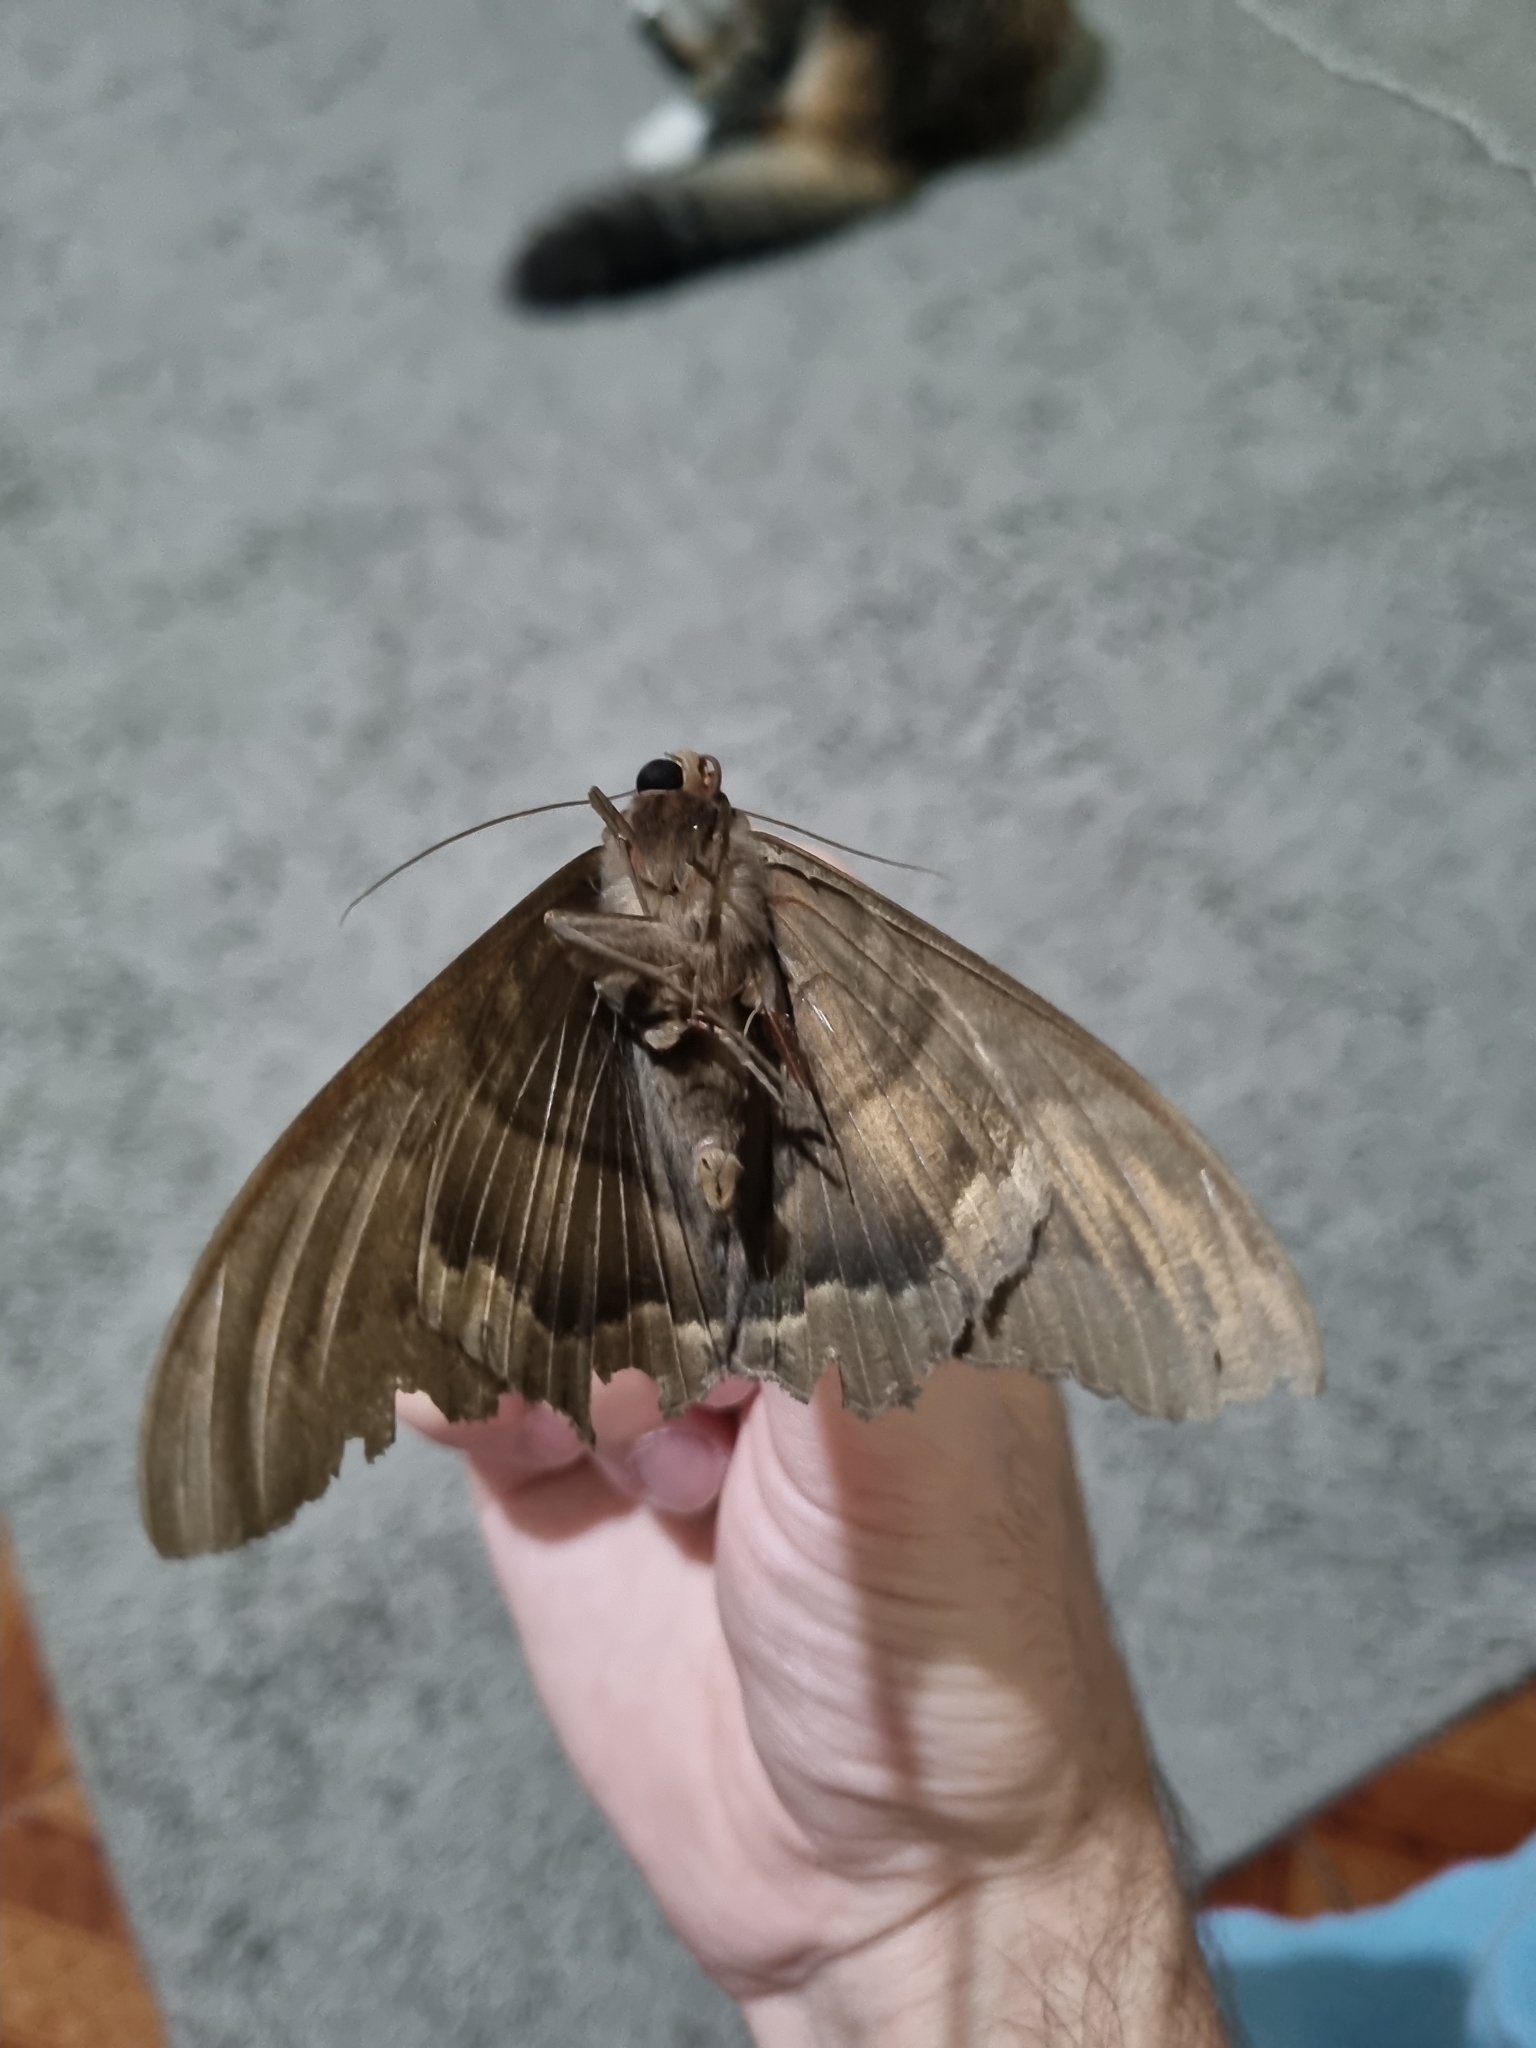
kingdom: Animalia
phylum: Arthropoda
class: Insecta
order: Lepidoptera
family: Erebidae
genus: Ascalapha
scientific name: Ascalapha odorata
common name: Black witch
